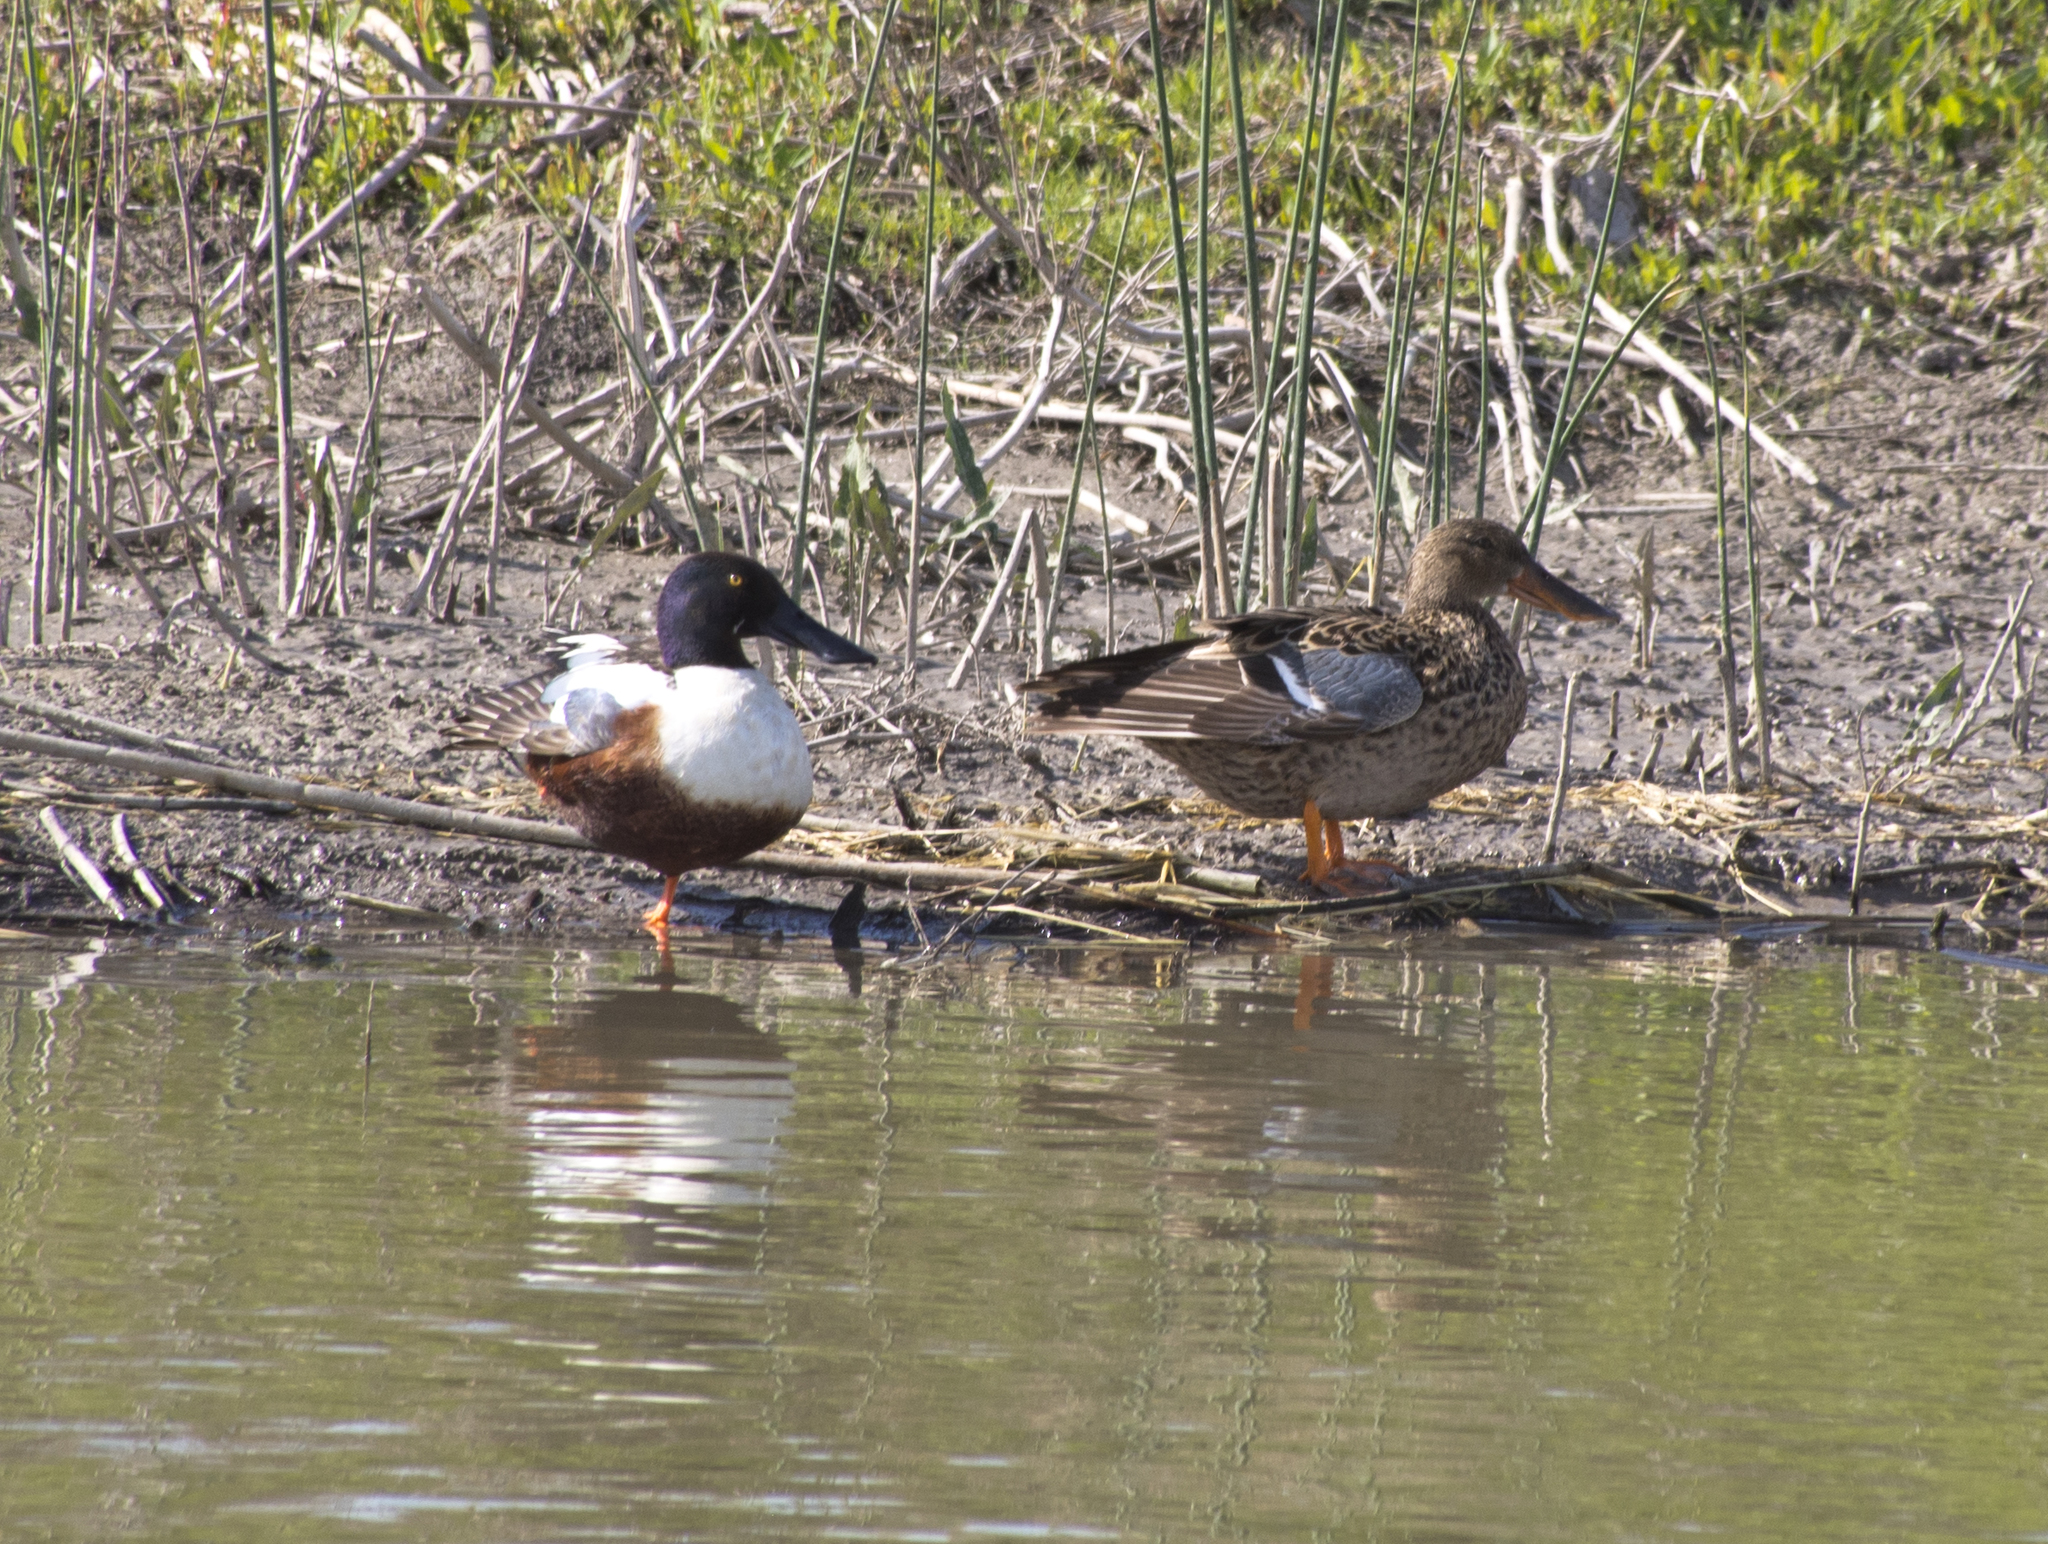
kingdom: Animalia
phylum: Chordata
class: Aves
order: Anseriformes
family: Anatidae
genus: Spatula
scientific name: Spatula clypeata
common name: Northern shoveler
